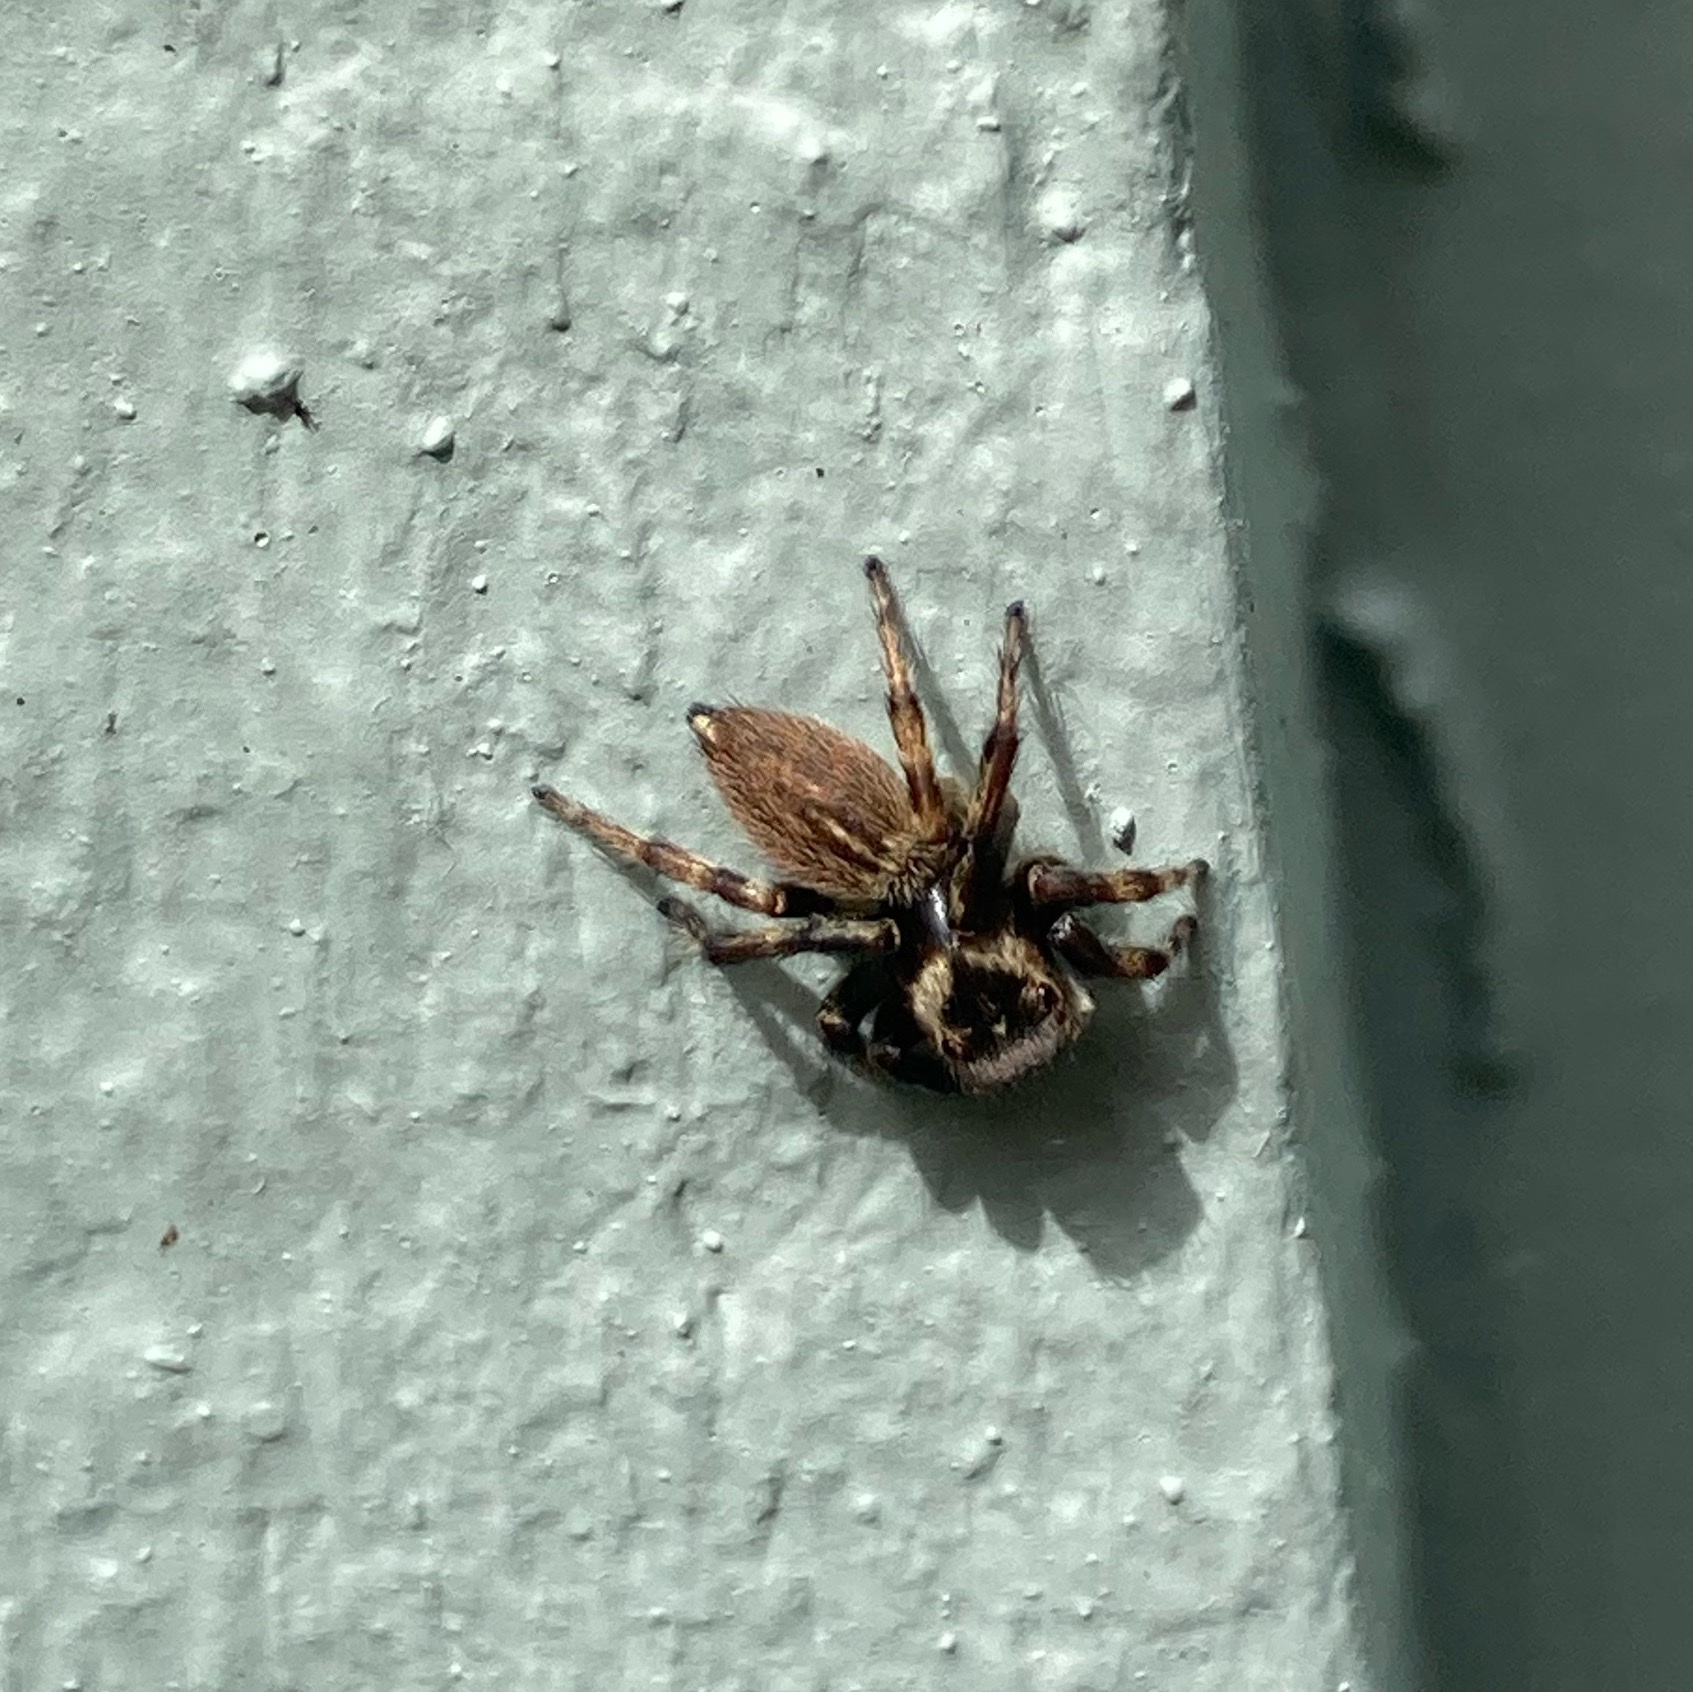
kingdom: Animalia
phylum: Arthropoda
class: Arachnida
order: Araneae
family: Salticidae
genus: Maratus
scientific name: Maratus griseus
